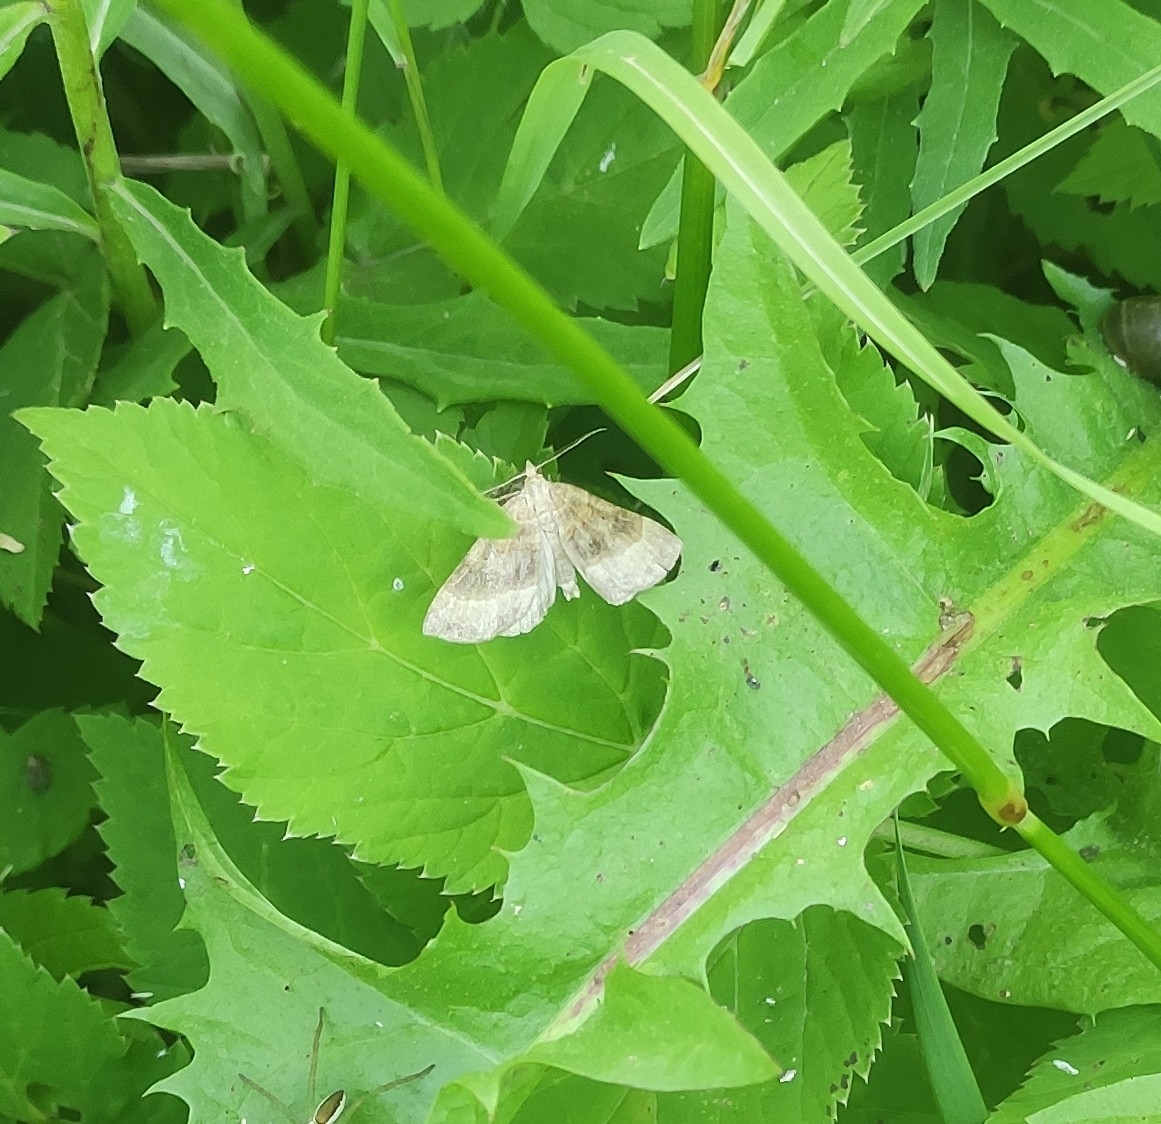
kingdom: Animalia
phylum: Arthropoda
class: Insecta
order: Lepidoptera
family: Geometridae
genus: Scotopteryx
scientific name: Scotopteryx chenopodiata
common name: Shaded broad-bar
